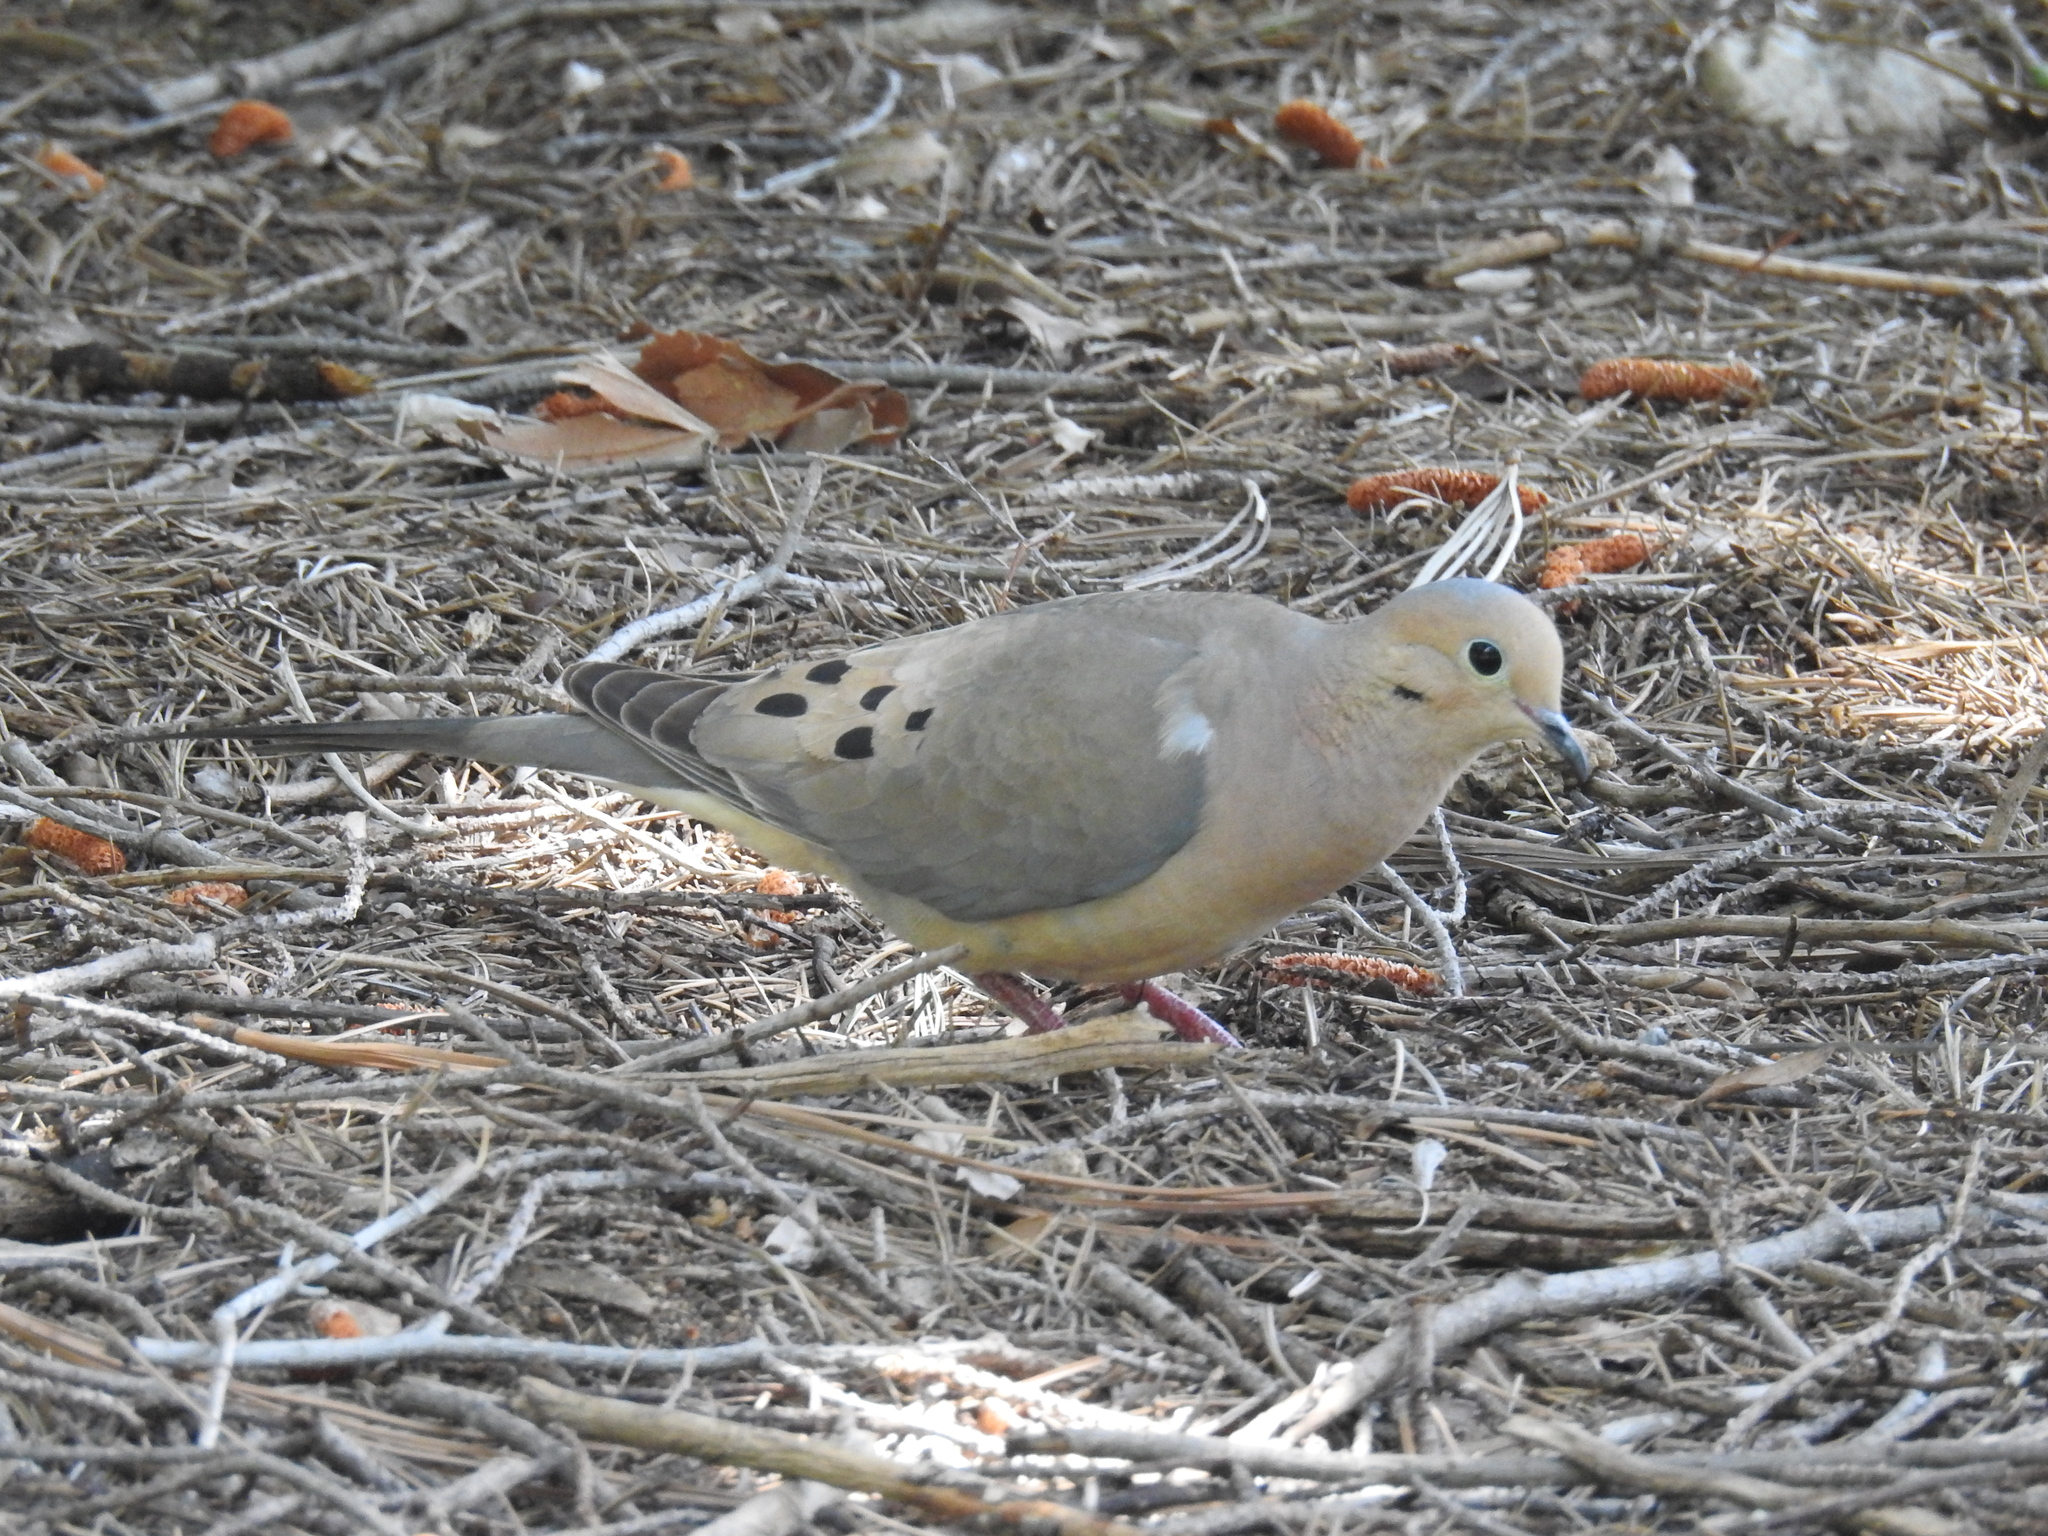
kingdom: Animalia
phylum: Chordata
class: Aves
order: Columbiformes
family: Columbidae
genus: Zenaida
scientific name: Zenaida macroura
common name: Mourning dove
